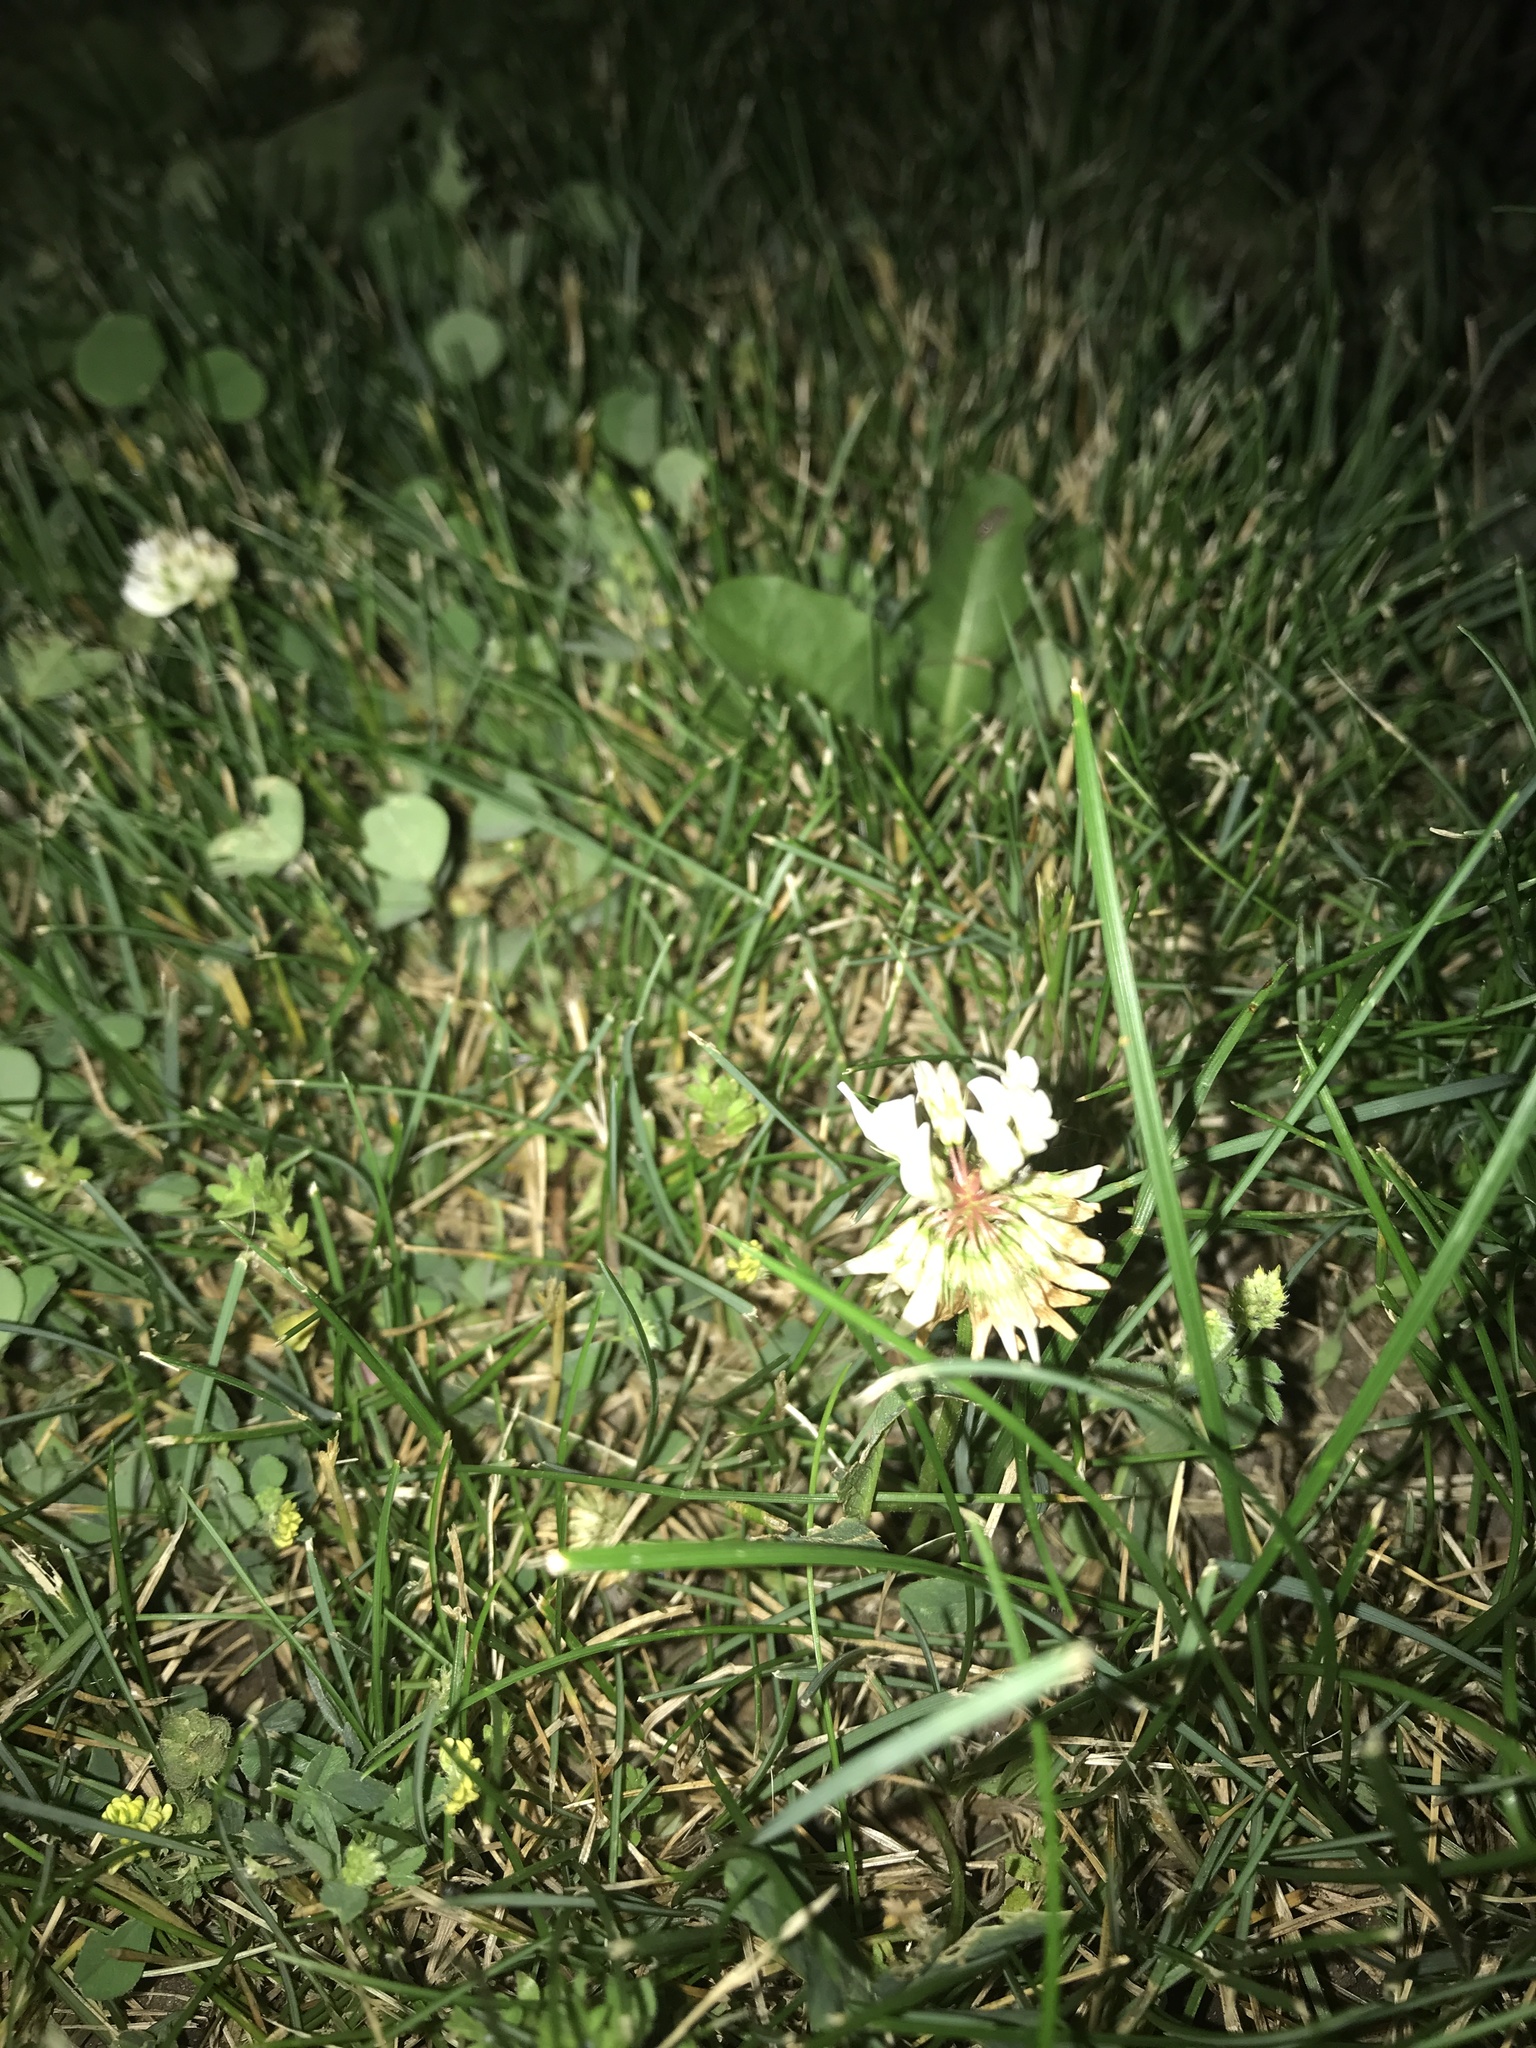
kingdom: Plantae
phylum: Tracheophyta
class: Magnoliopsida
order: Fabales
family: Fabaceae
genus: Trifolium
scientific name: Trifolium repens
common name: White clover
